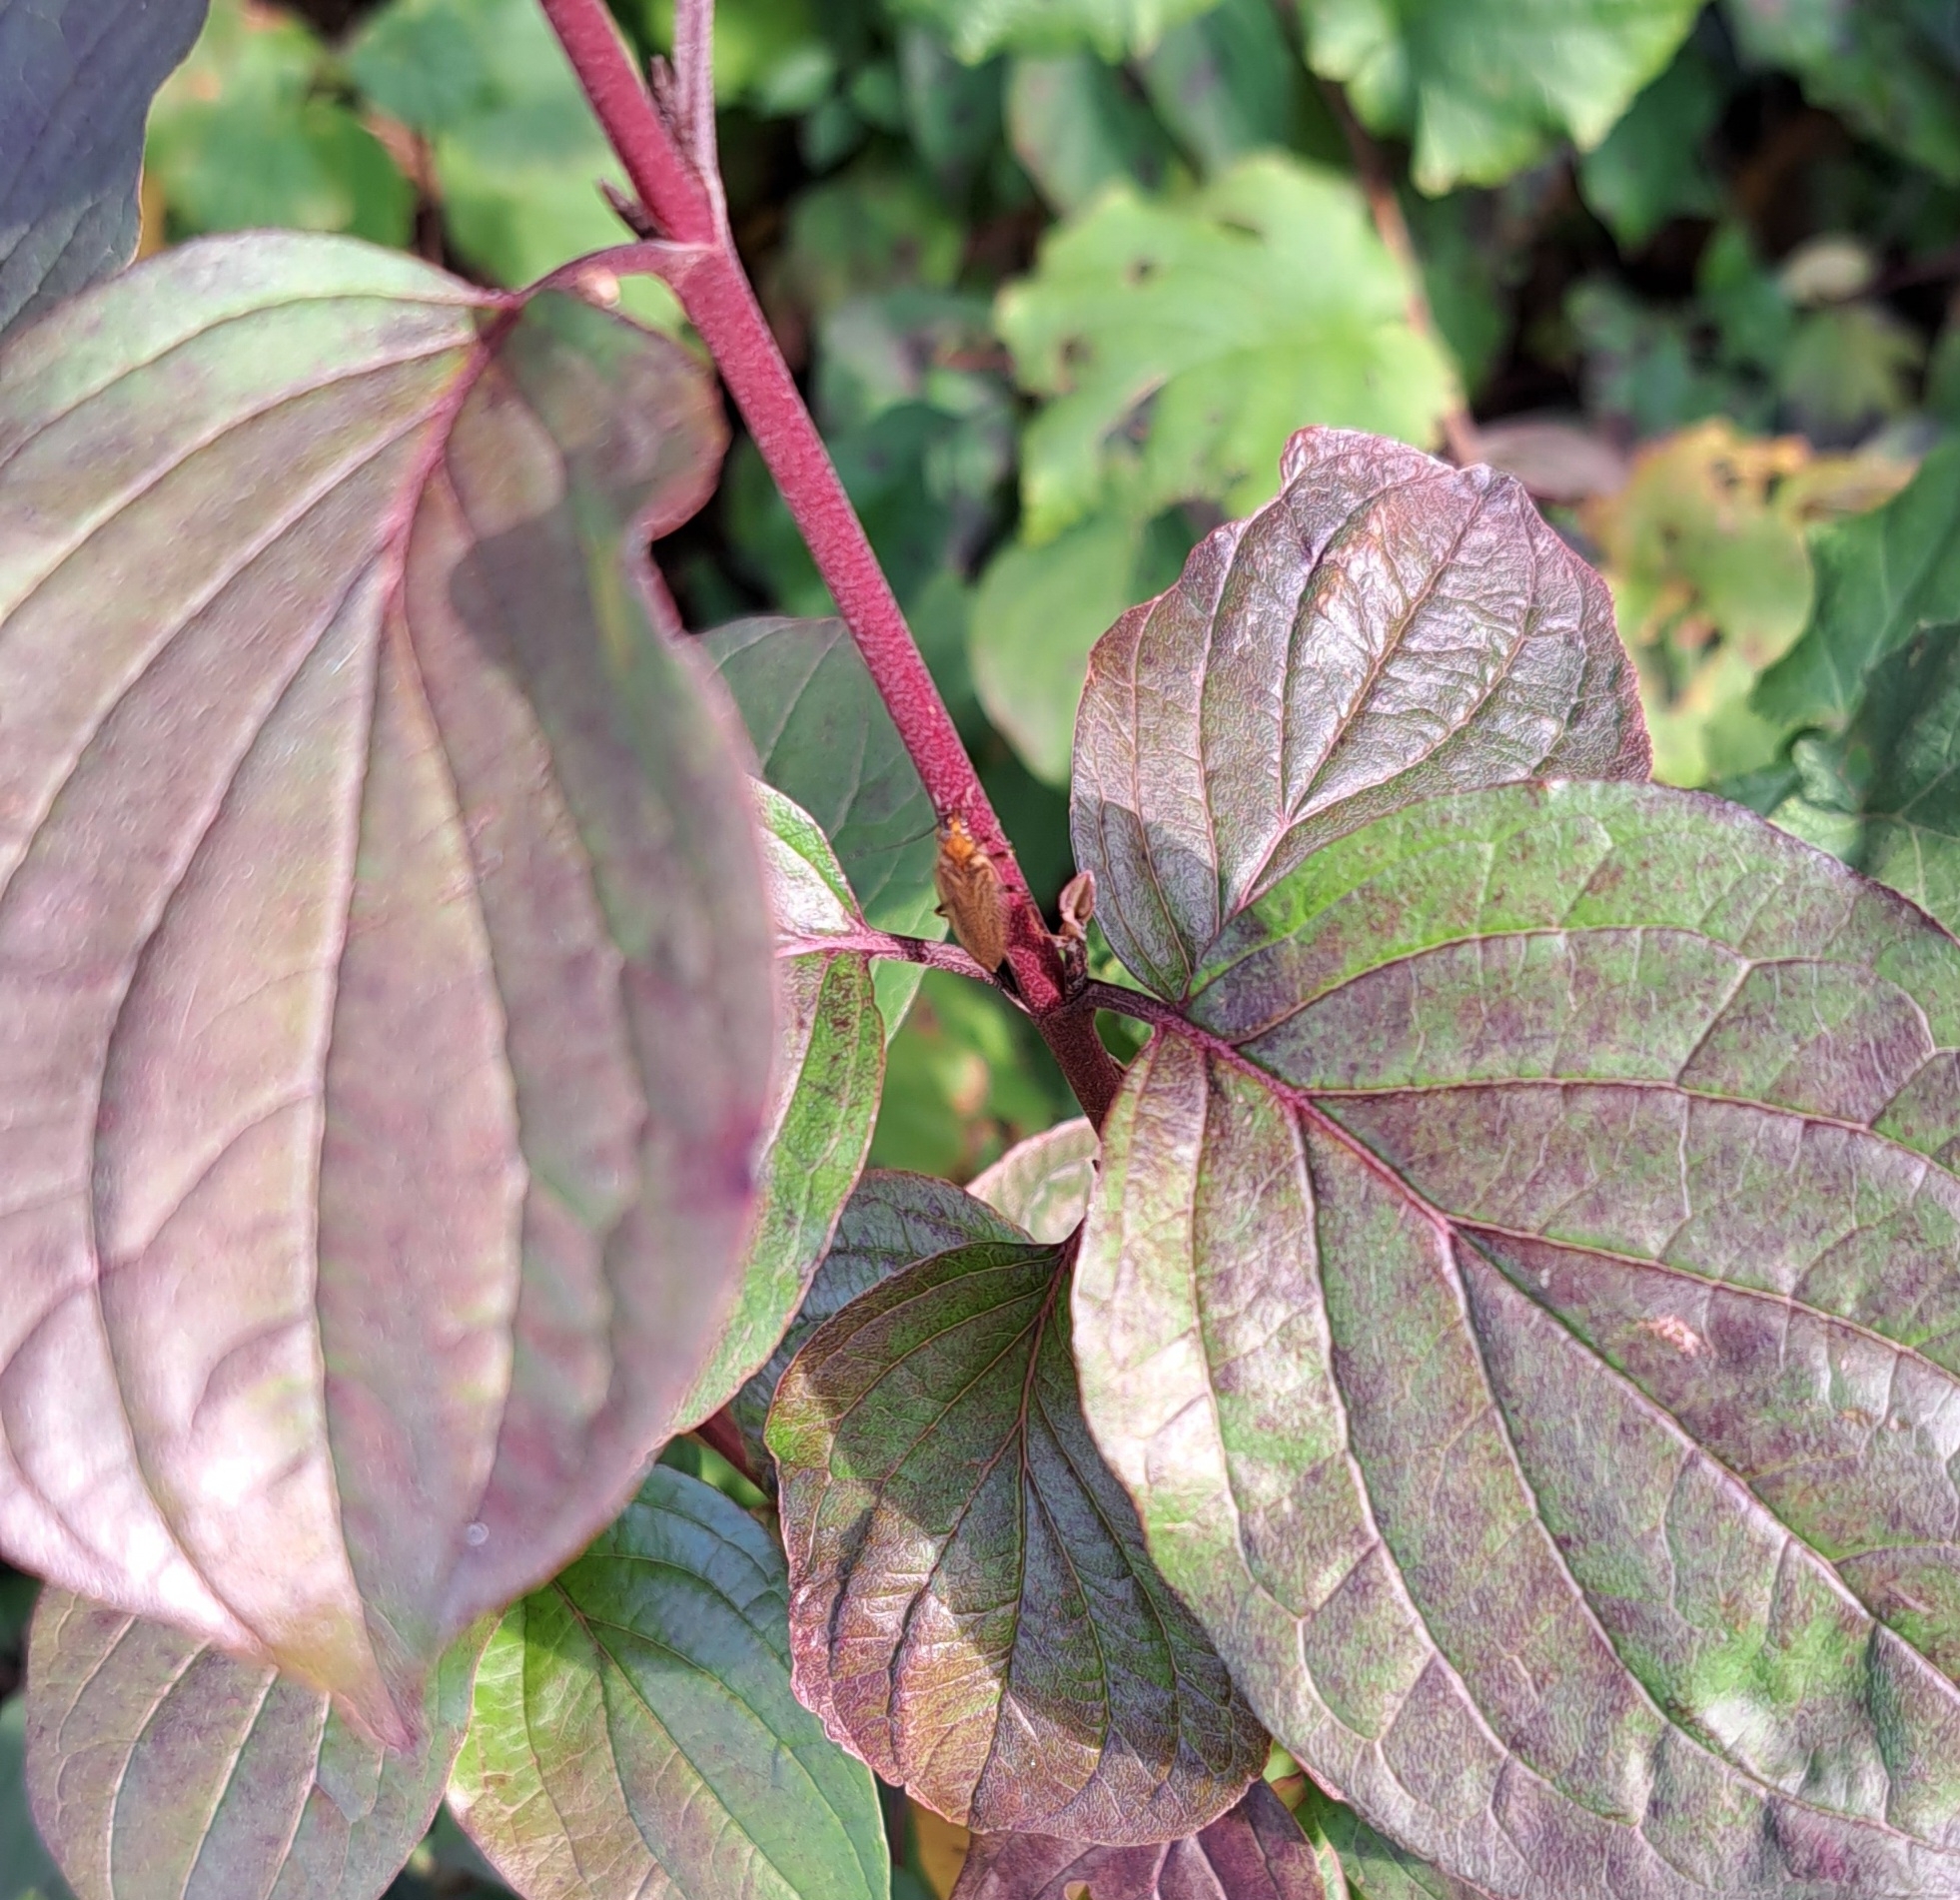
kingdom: Animalia
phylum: Arthropoda
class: Insecta
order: Blattodea
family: Ectobiidae
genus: Ectobius
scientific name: Ectobius vittiventris
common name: Garden cockroach
